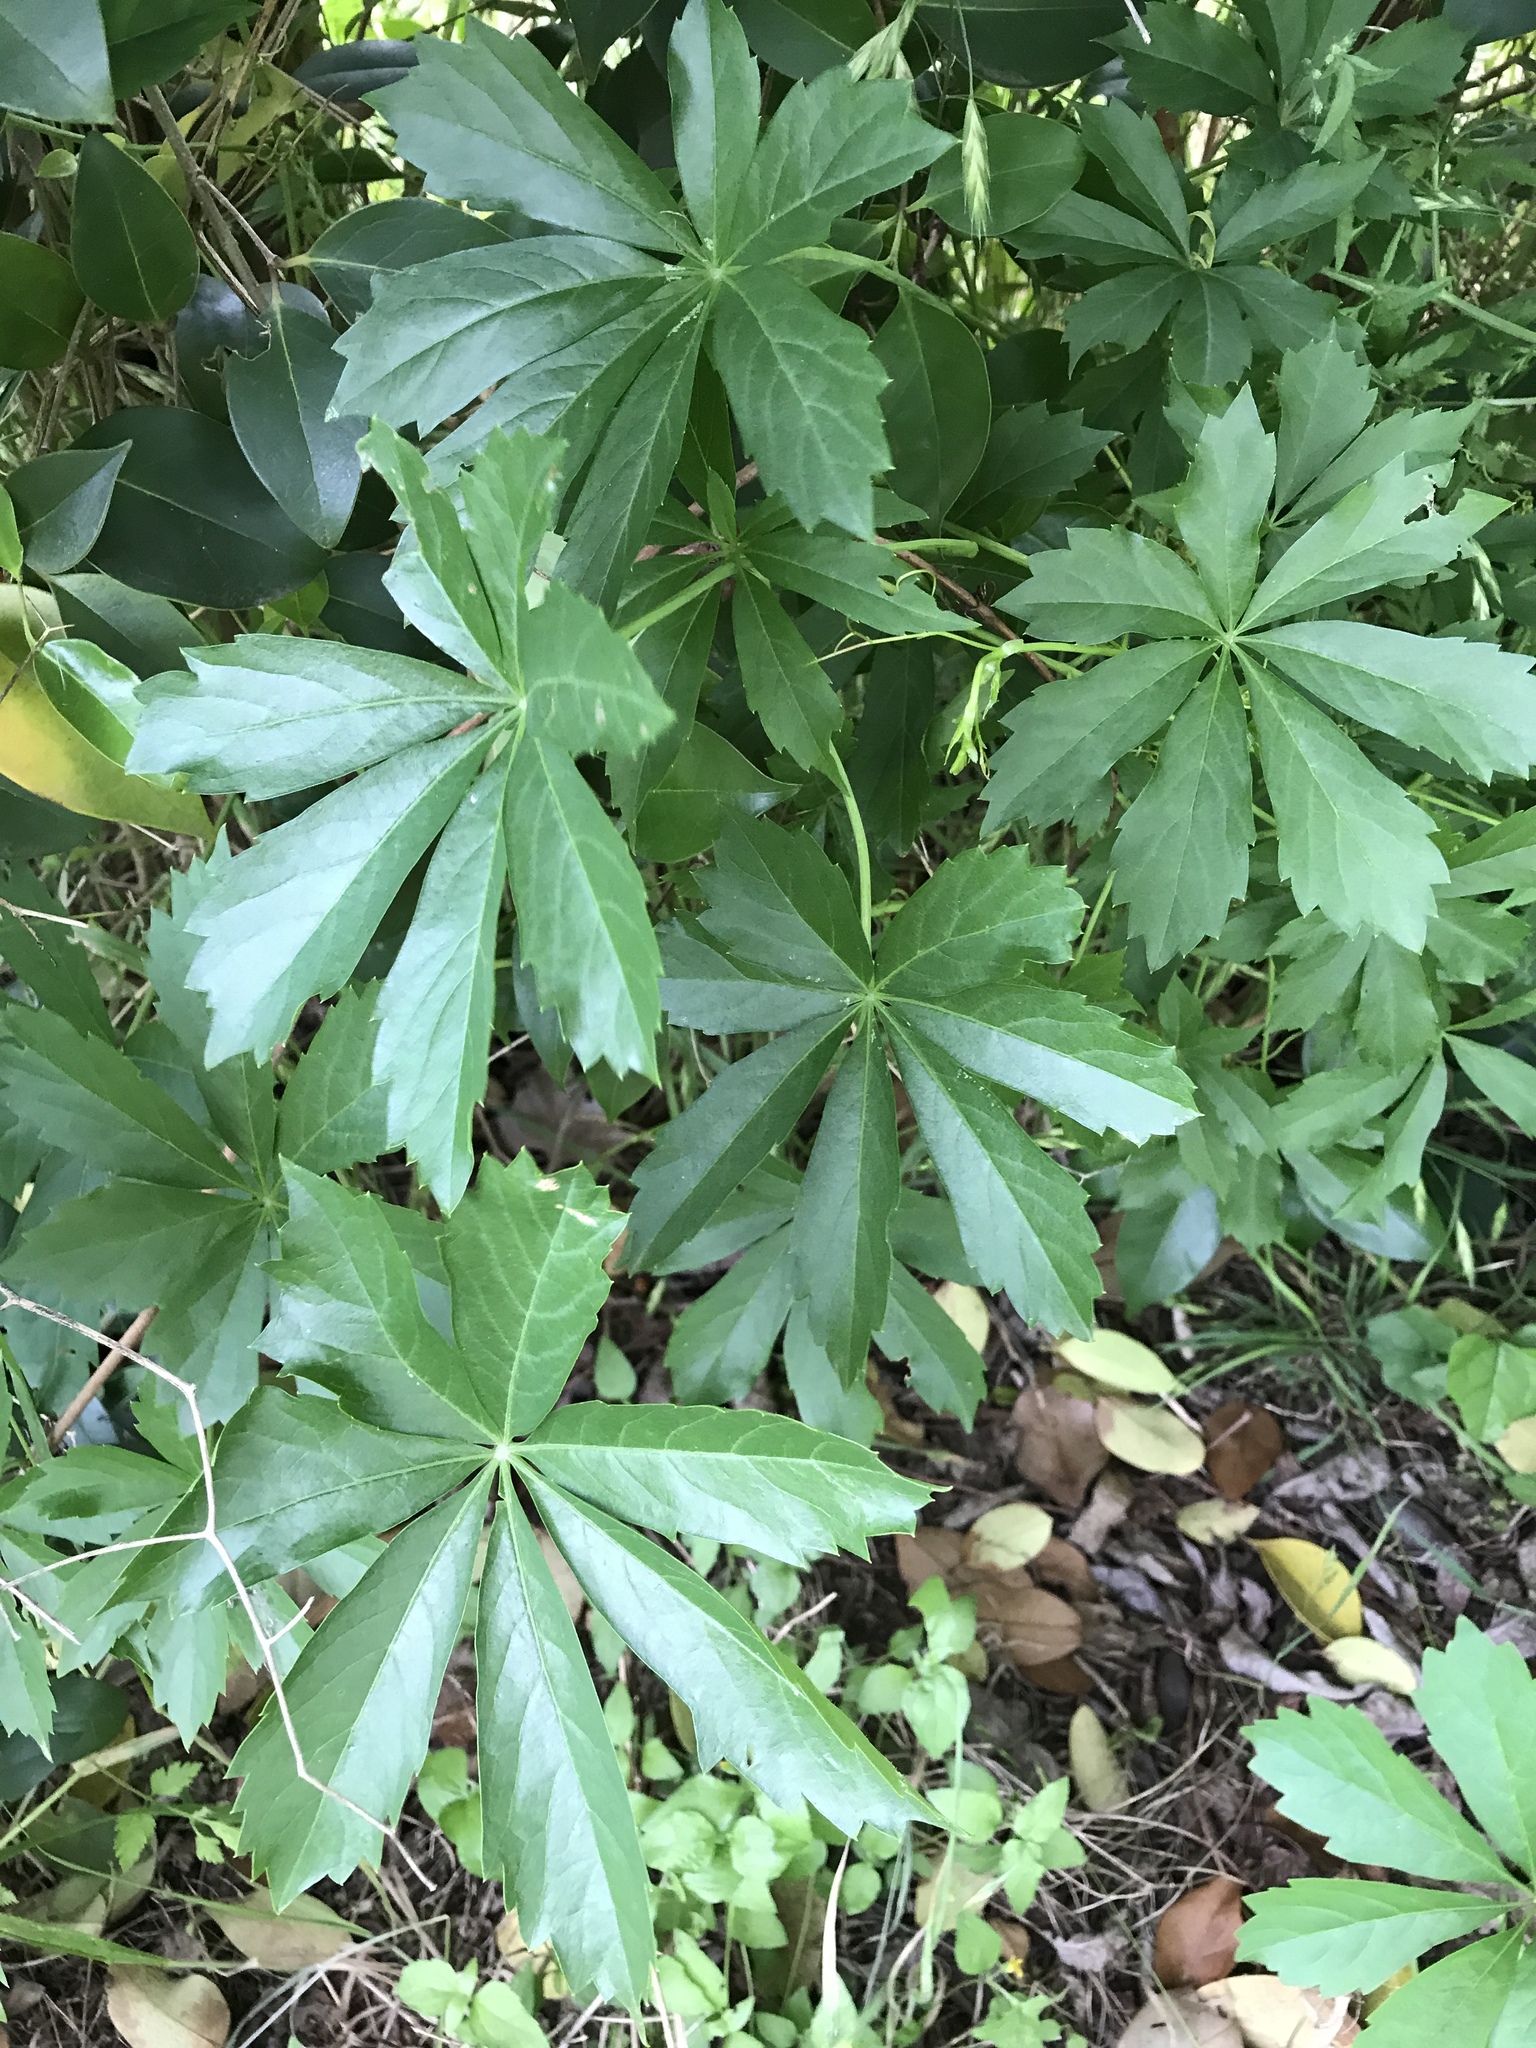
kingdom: Plantae
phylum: Tracheophyta
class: Magnoliopsida
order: Vitales
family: Vitaceae
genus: Parthenocissus
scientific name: Parthenocissus heptaphylla
